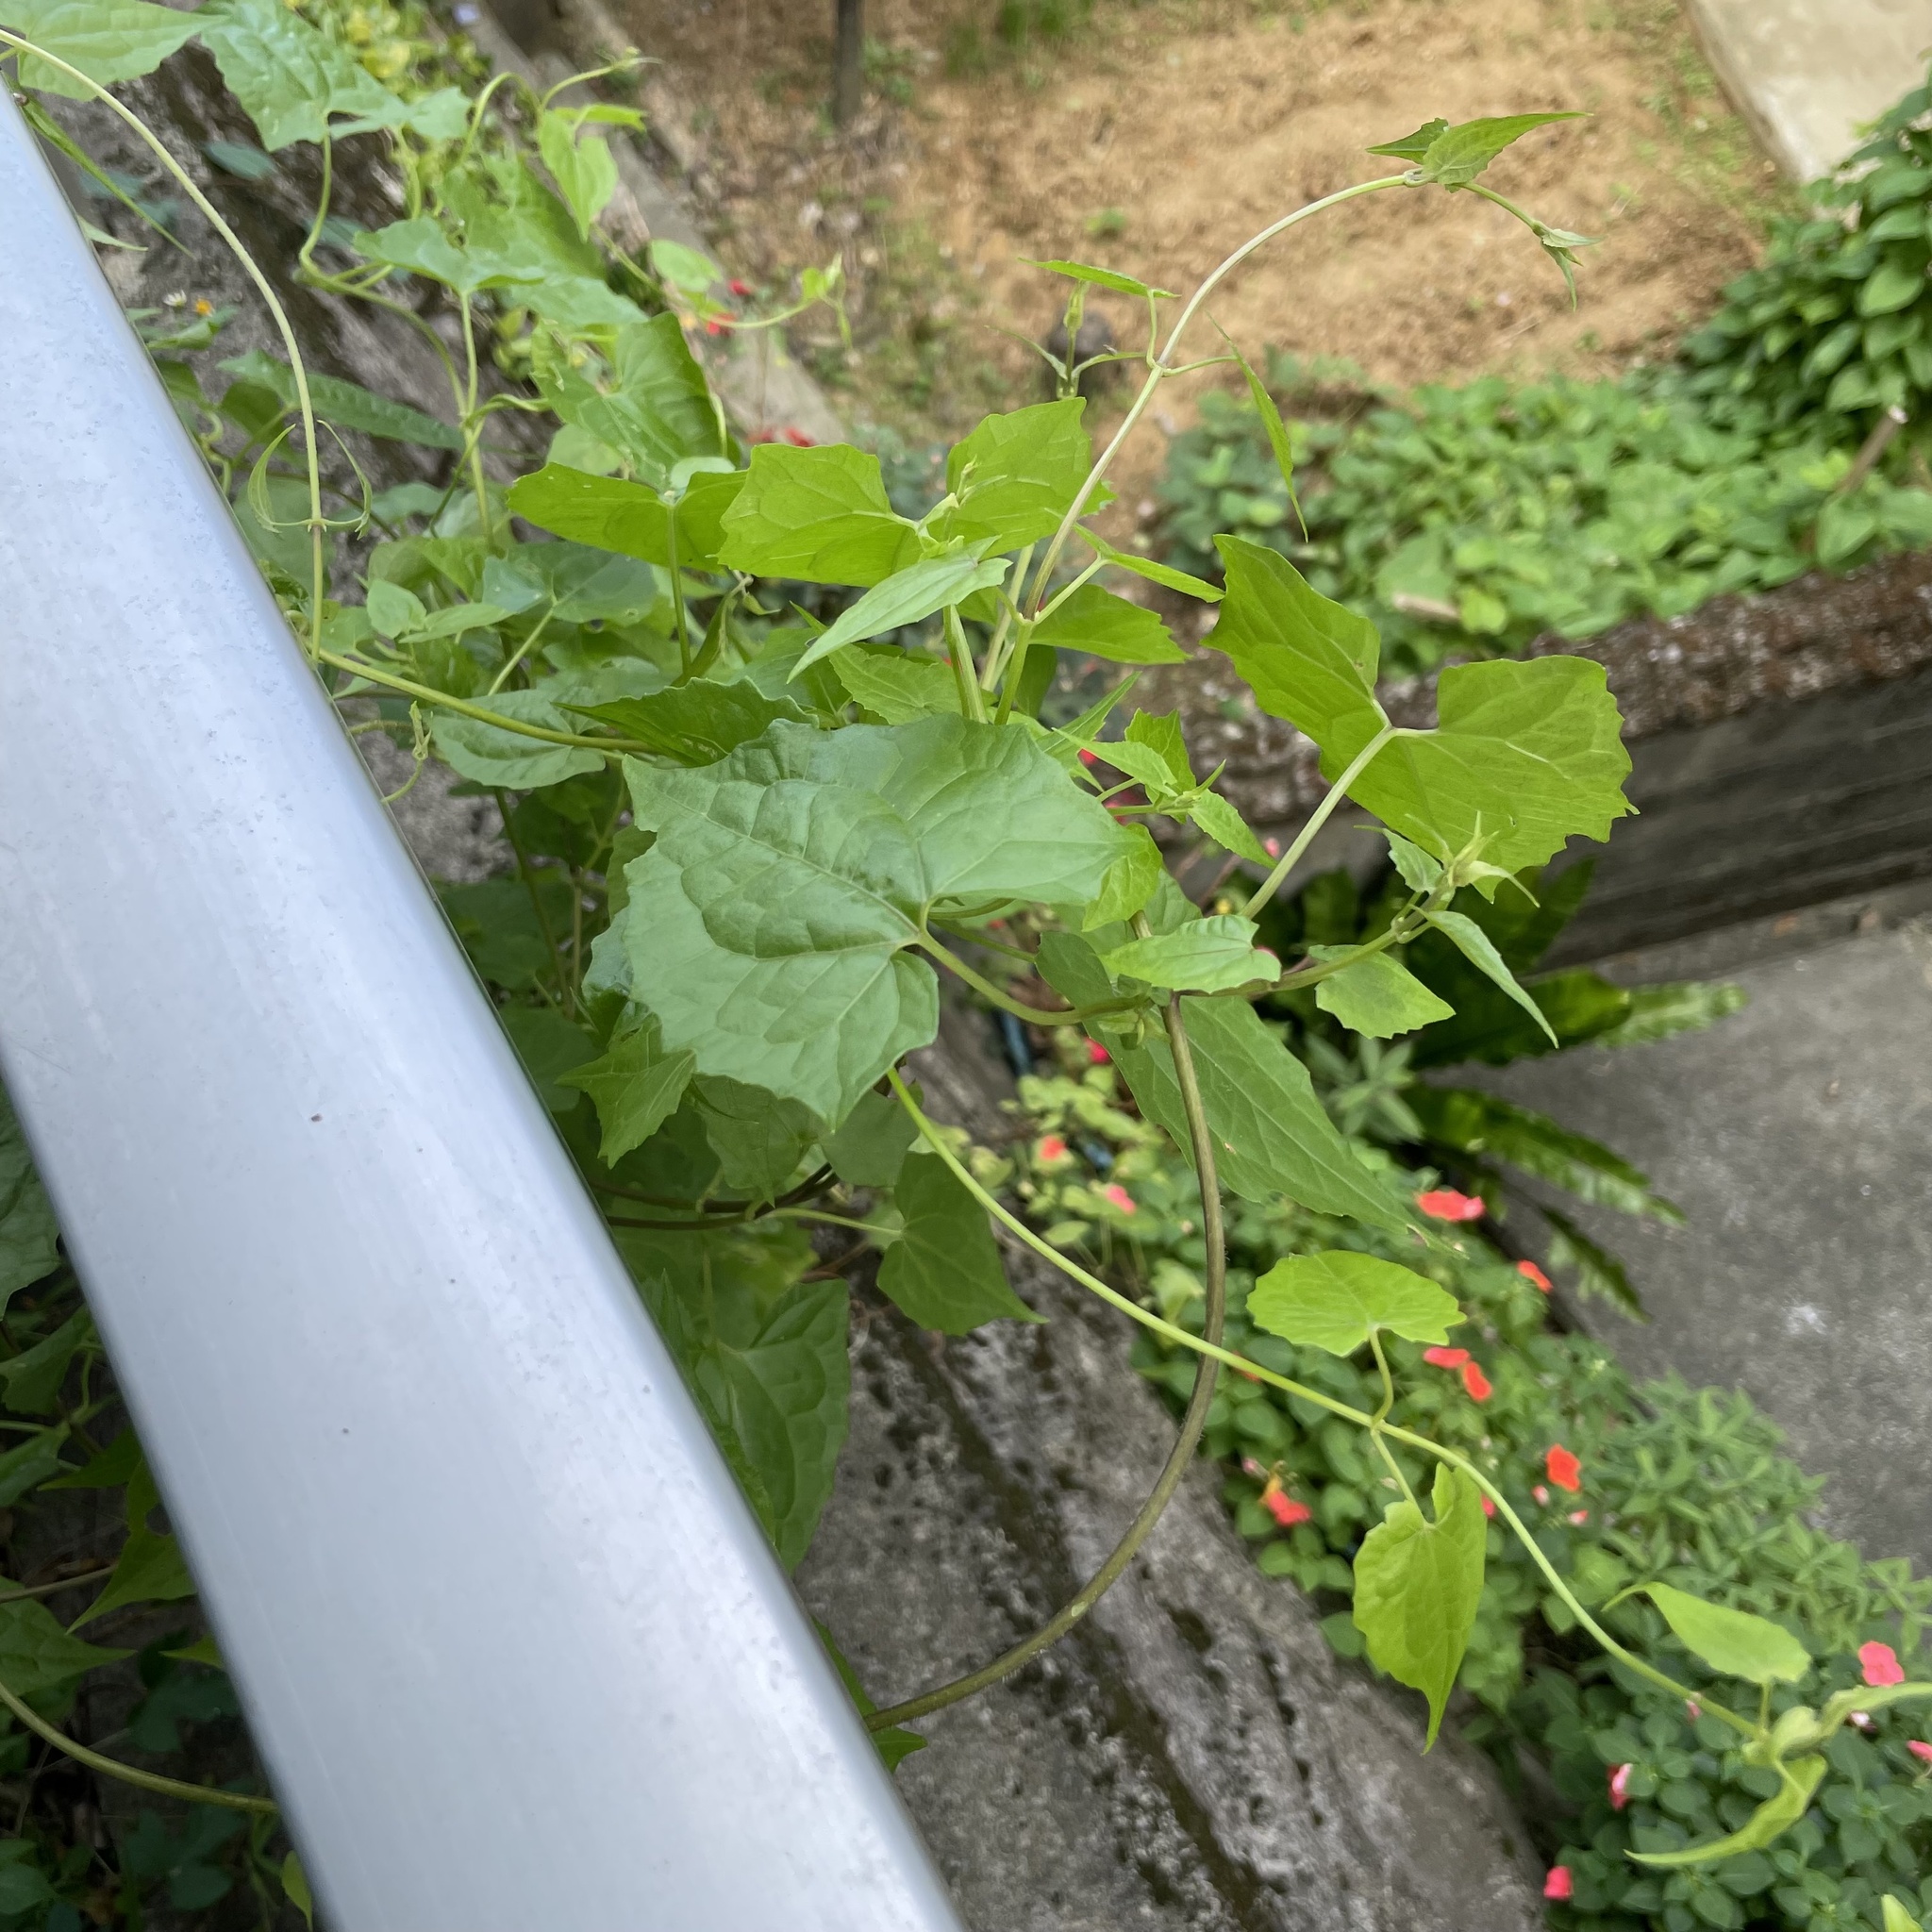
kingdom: Plantae
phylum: Tracheophyta
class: Magnoliopsida
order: Asterales
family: Asteraceae
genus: Mikania
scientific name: Mikania micrantha
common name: Mile-a-minute
